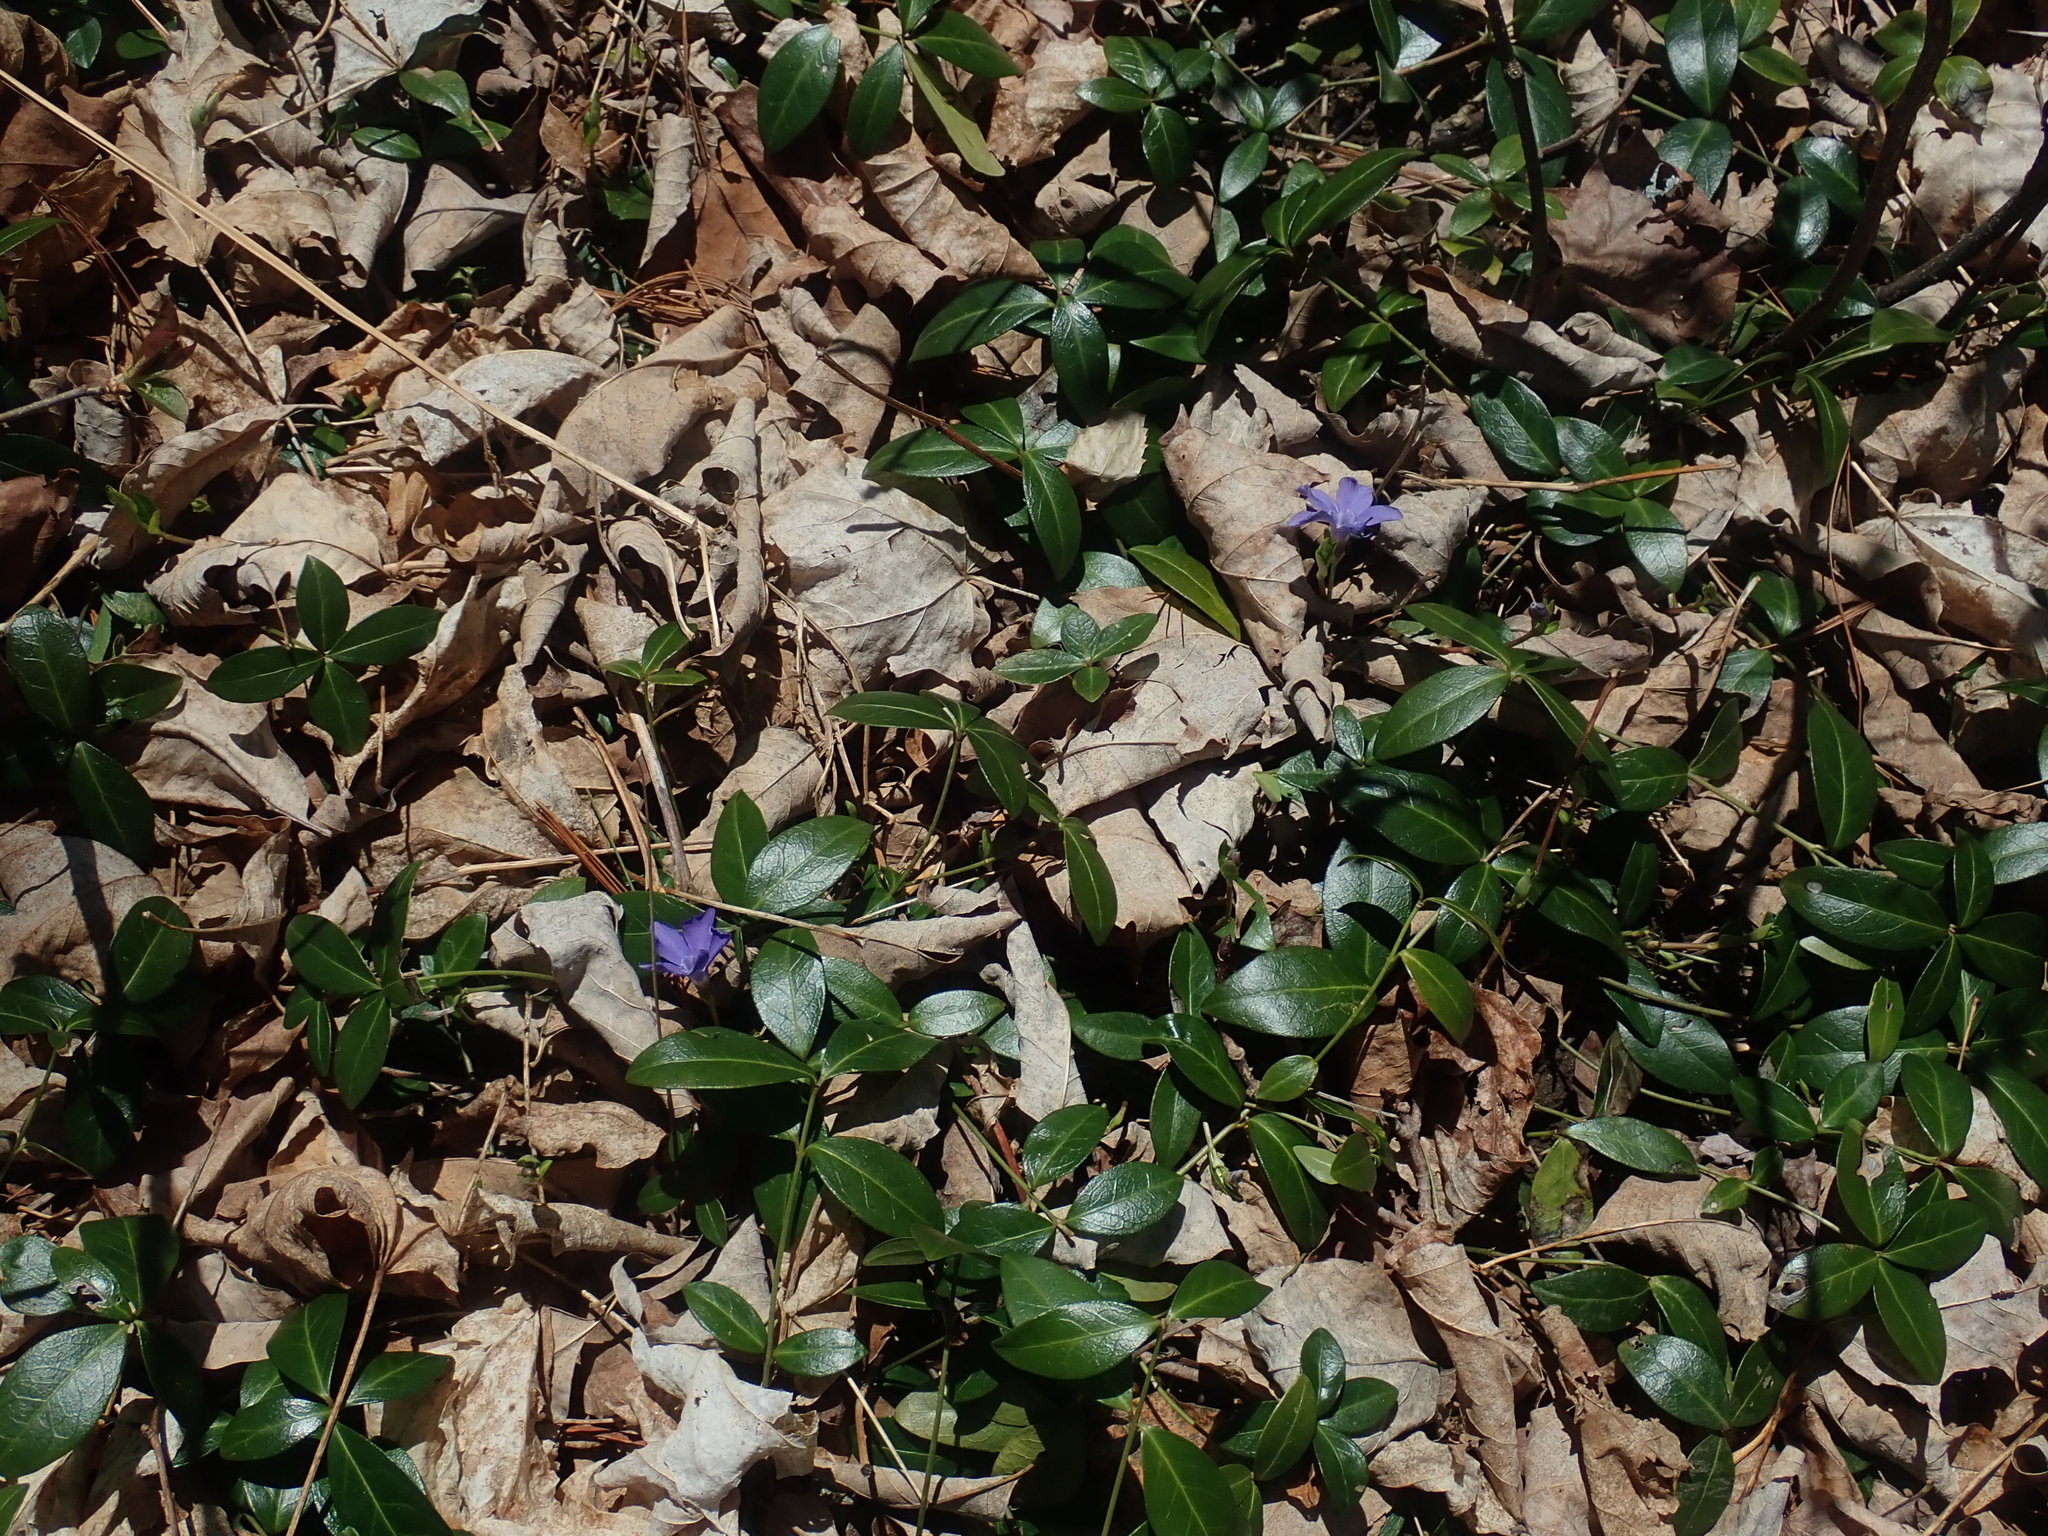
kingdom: Plantae
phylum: Tracheophyta
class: Magnoliopsida
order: Gentianales
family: Apocynaceae
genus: Vinca
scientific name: Vinca minor
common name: Lesser periwinkle
